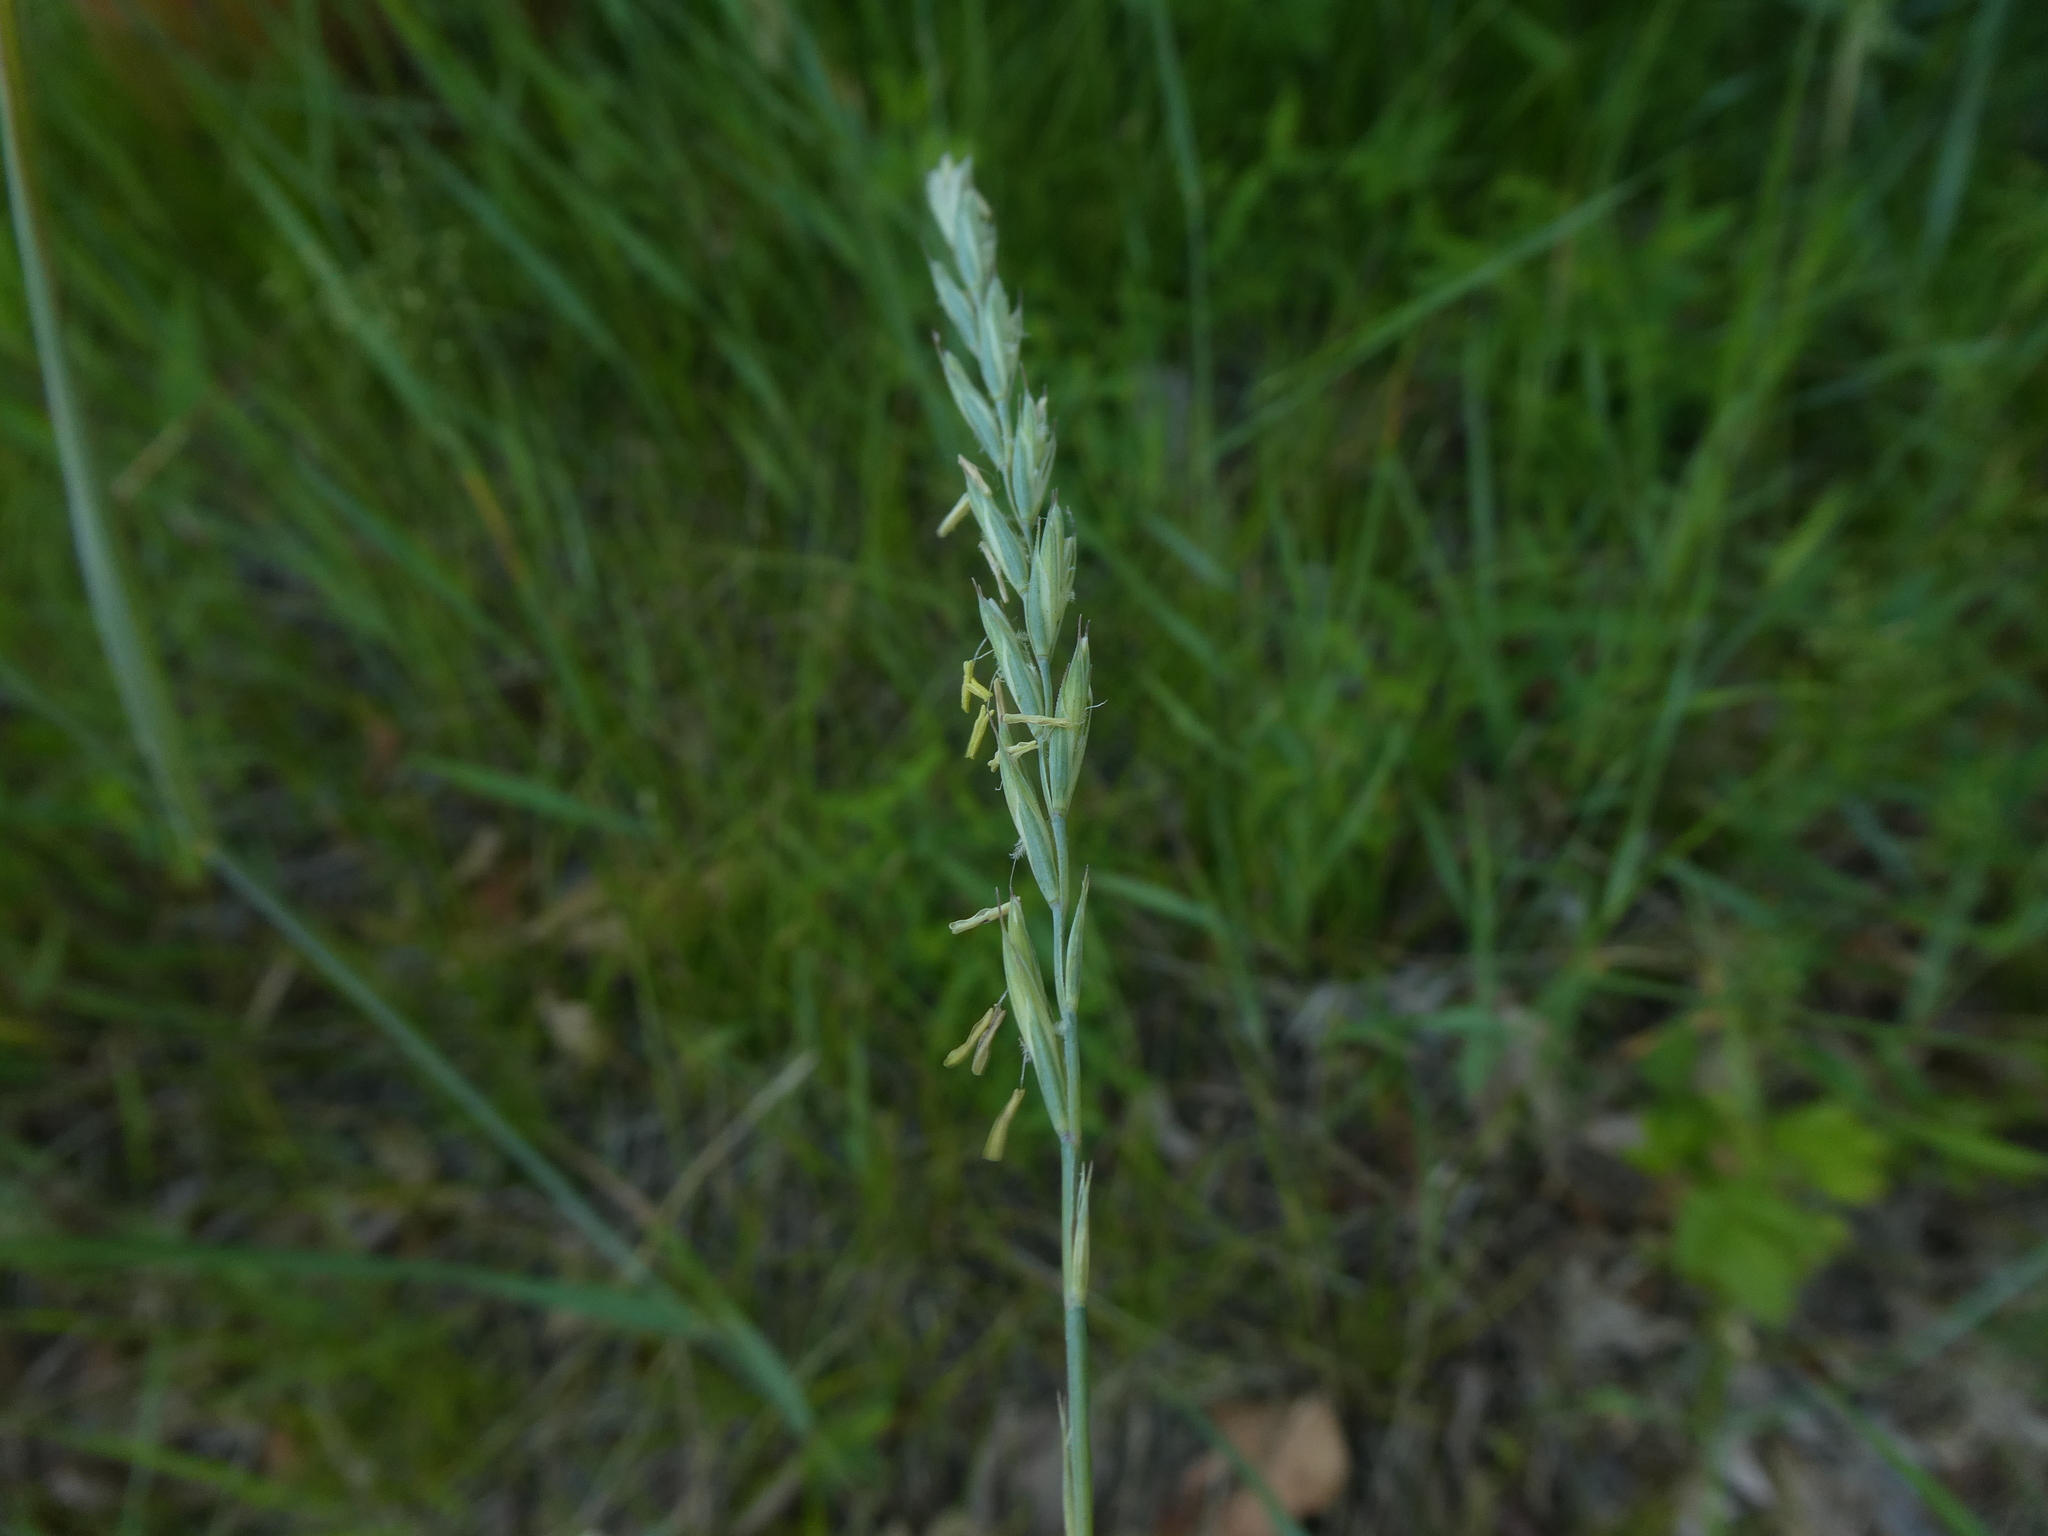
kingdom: Plantae
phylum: Tracheophyta
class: Liliopsida
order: Poales
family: Poaceae
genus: Elymus
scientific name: Elymus repens
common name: Quackgrass
